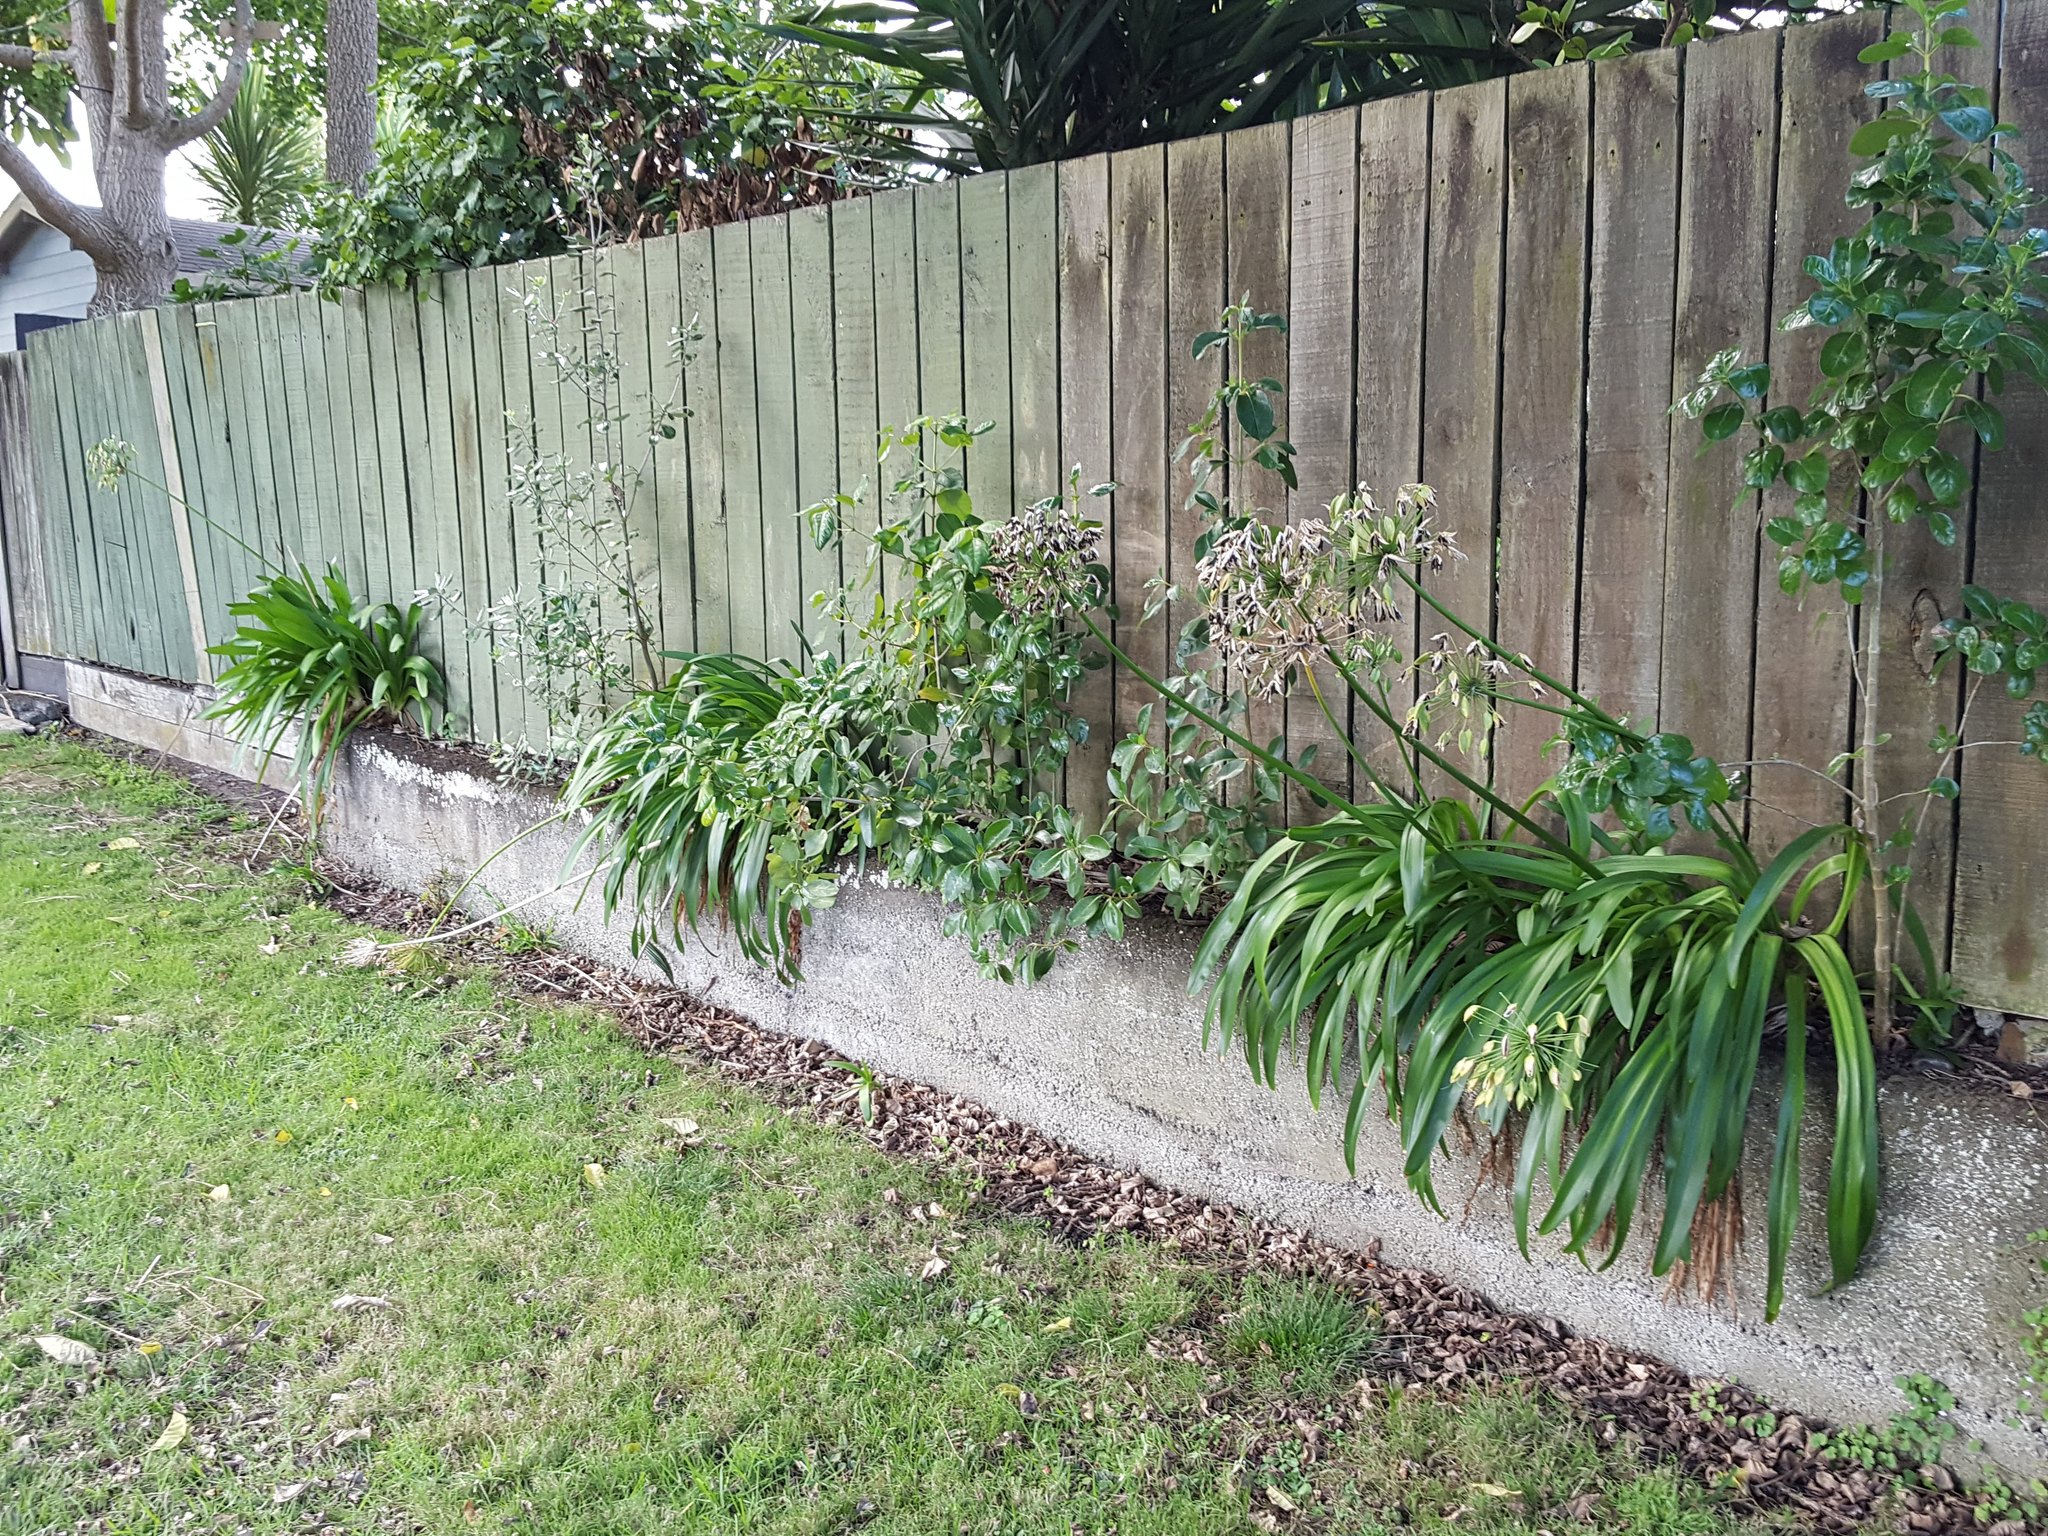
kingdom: Plantae
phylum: Tracheophyta
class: Liliopsida
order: Asparagales
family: Amaryllidaceae
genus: Agapanthus
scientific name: Agapanthus praecox
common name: African-lily
